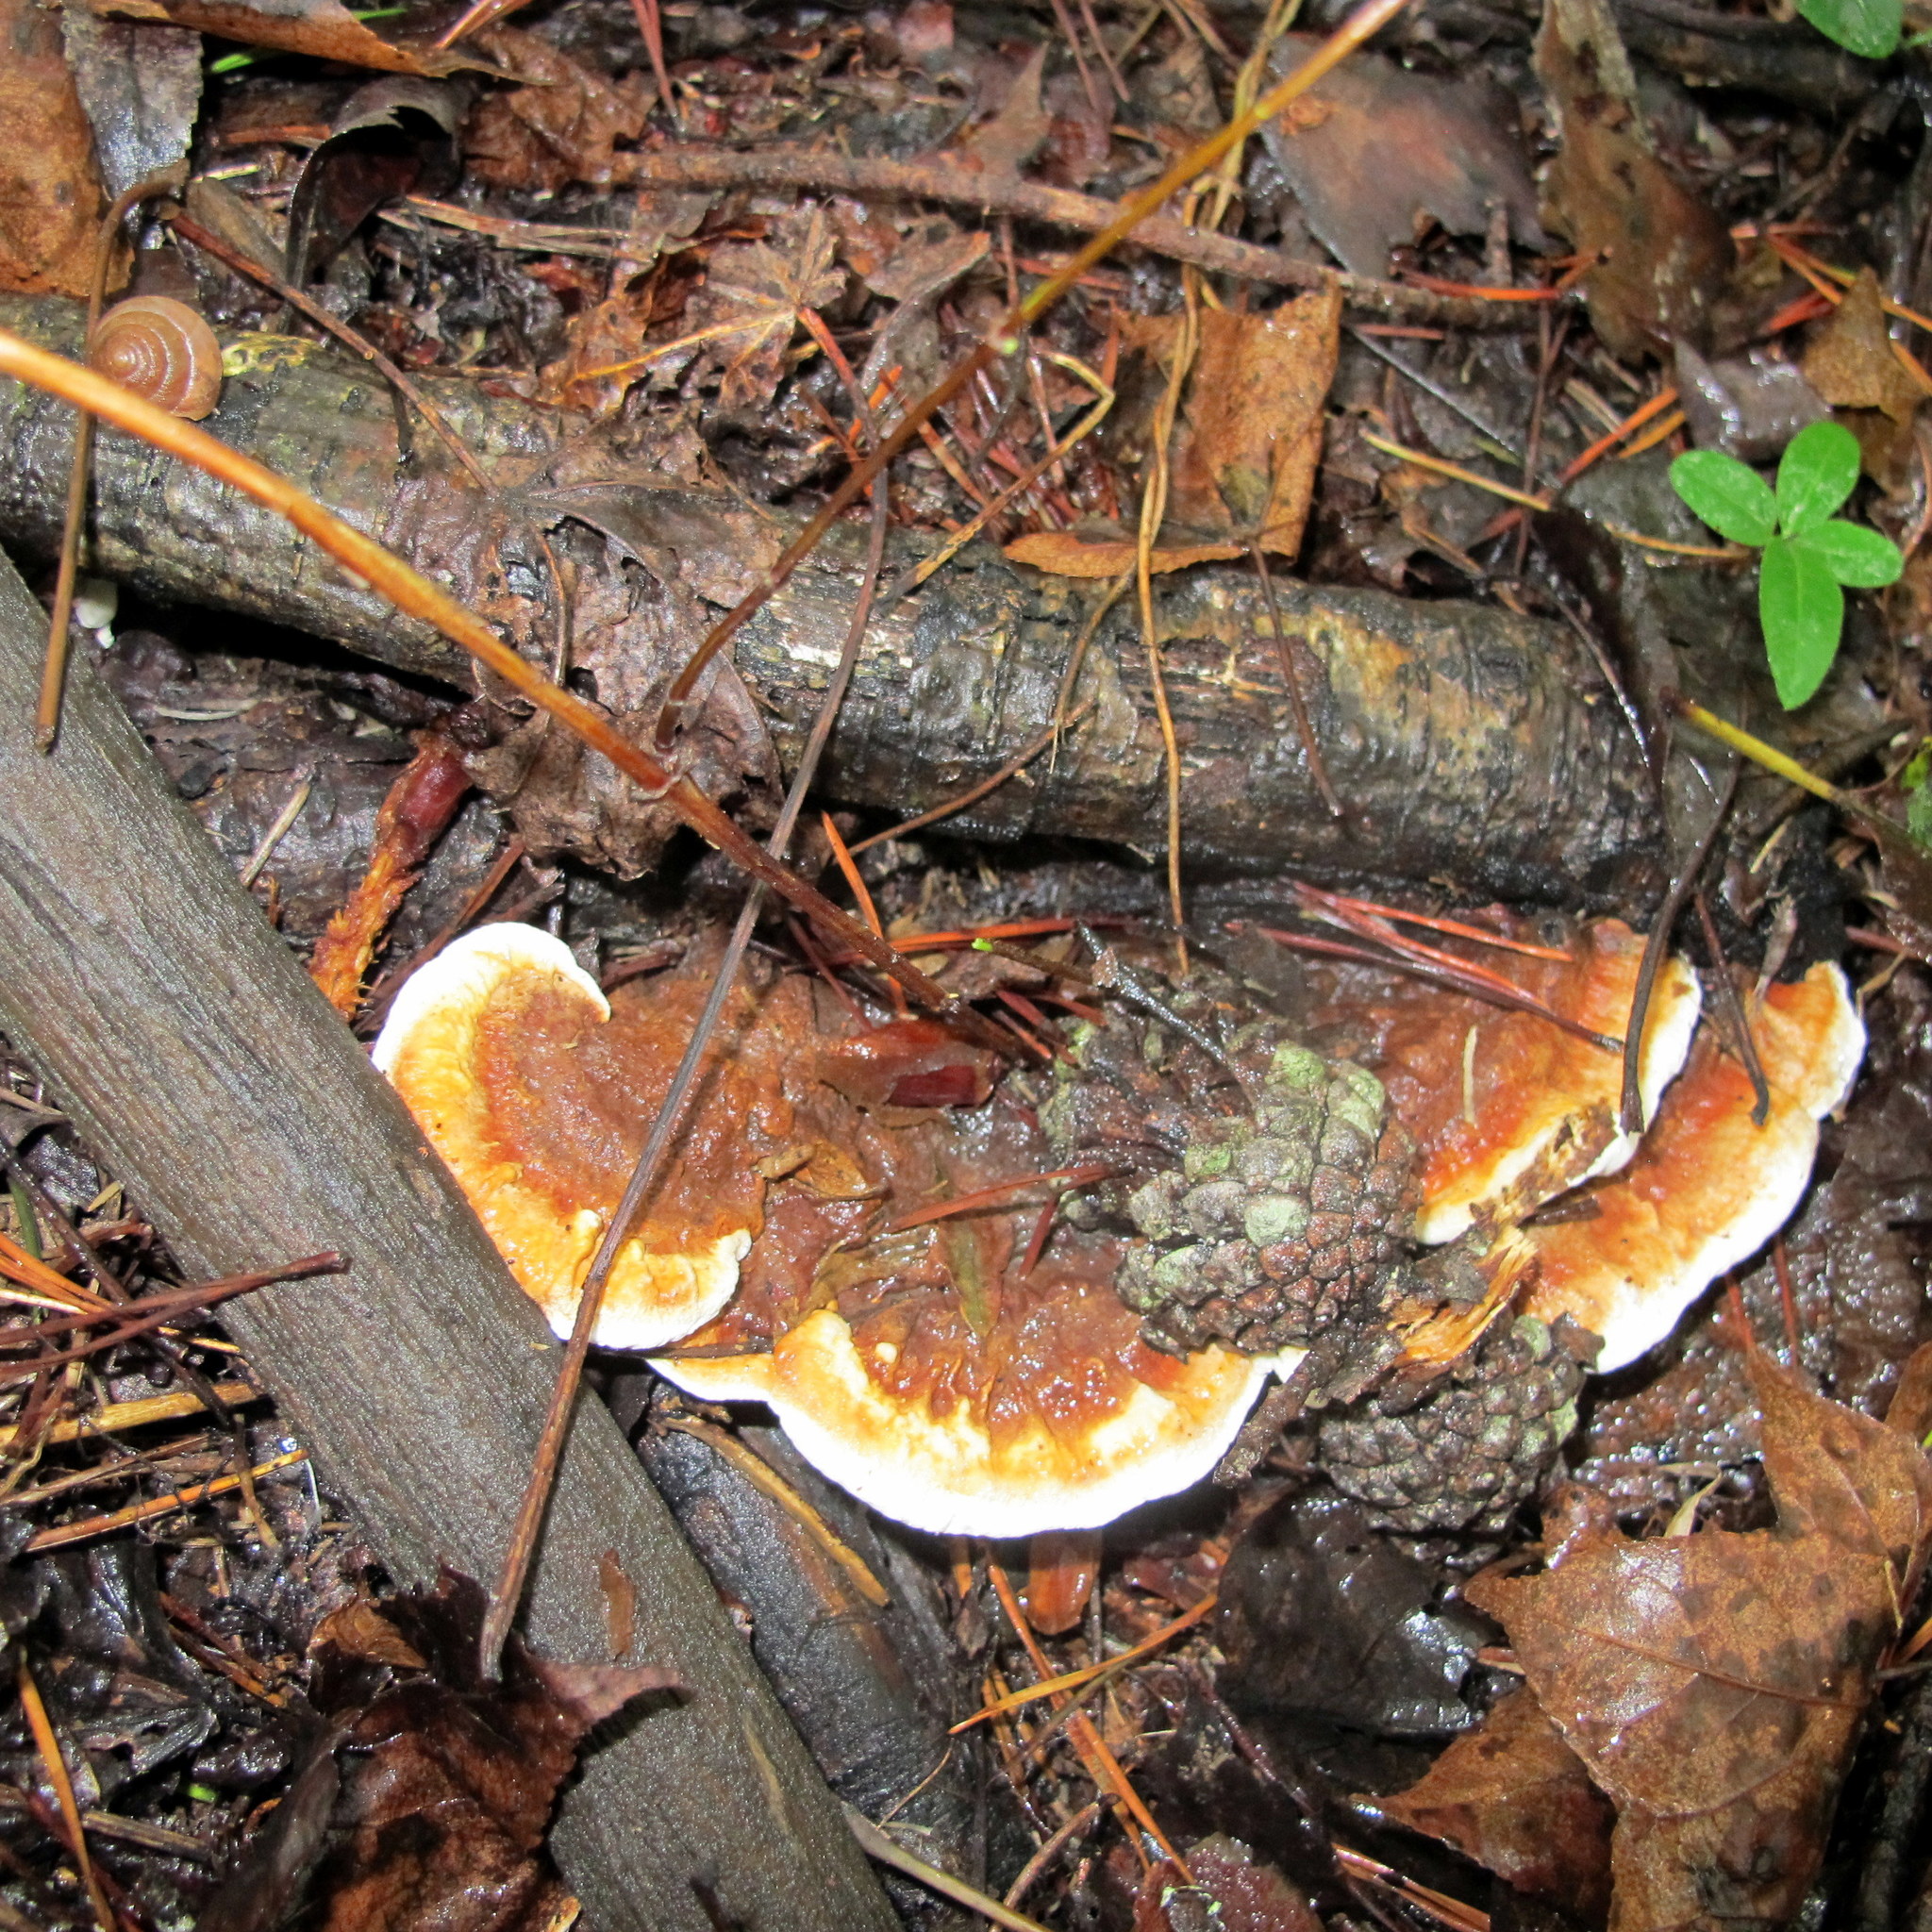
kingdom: Fungi
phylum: Basidiomycota
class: Agaricomycetes
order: Polyporales
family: Polyporaceae
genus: Ganoderma
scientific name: Ganoderma resinaceum
